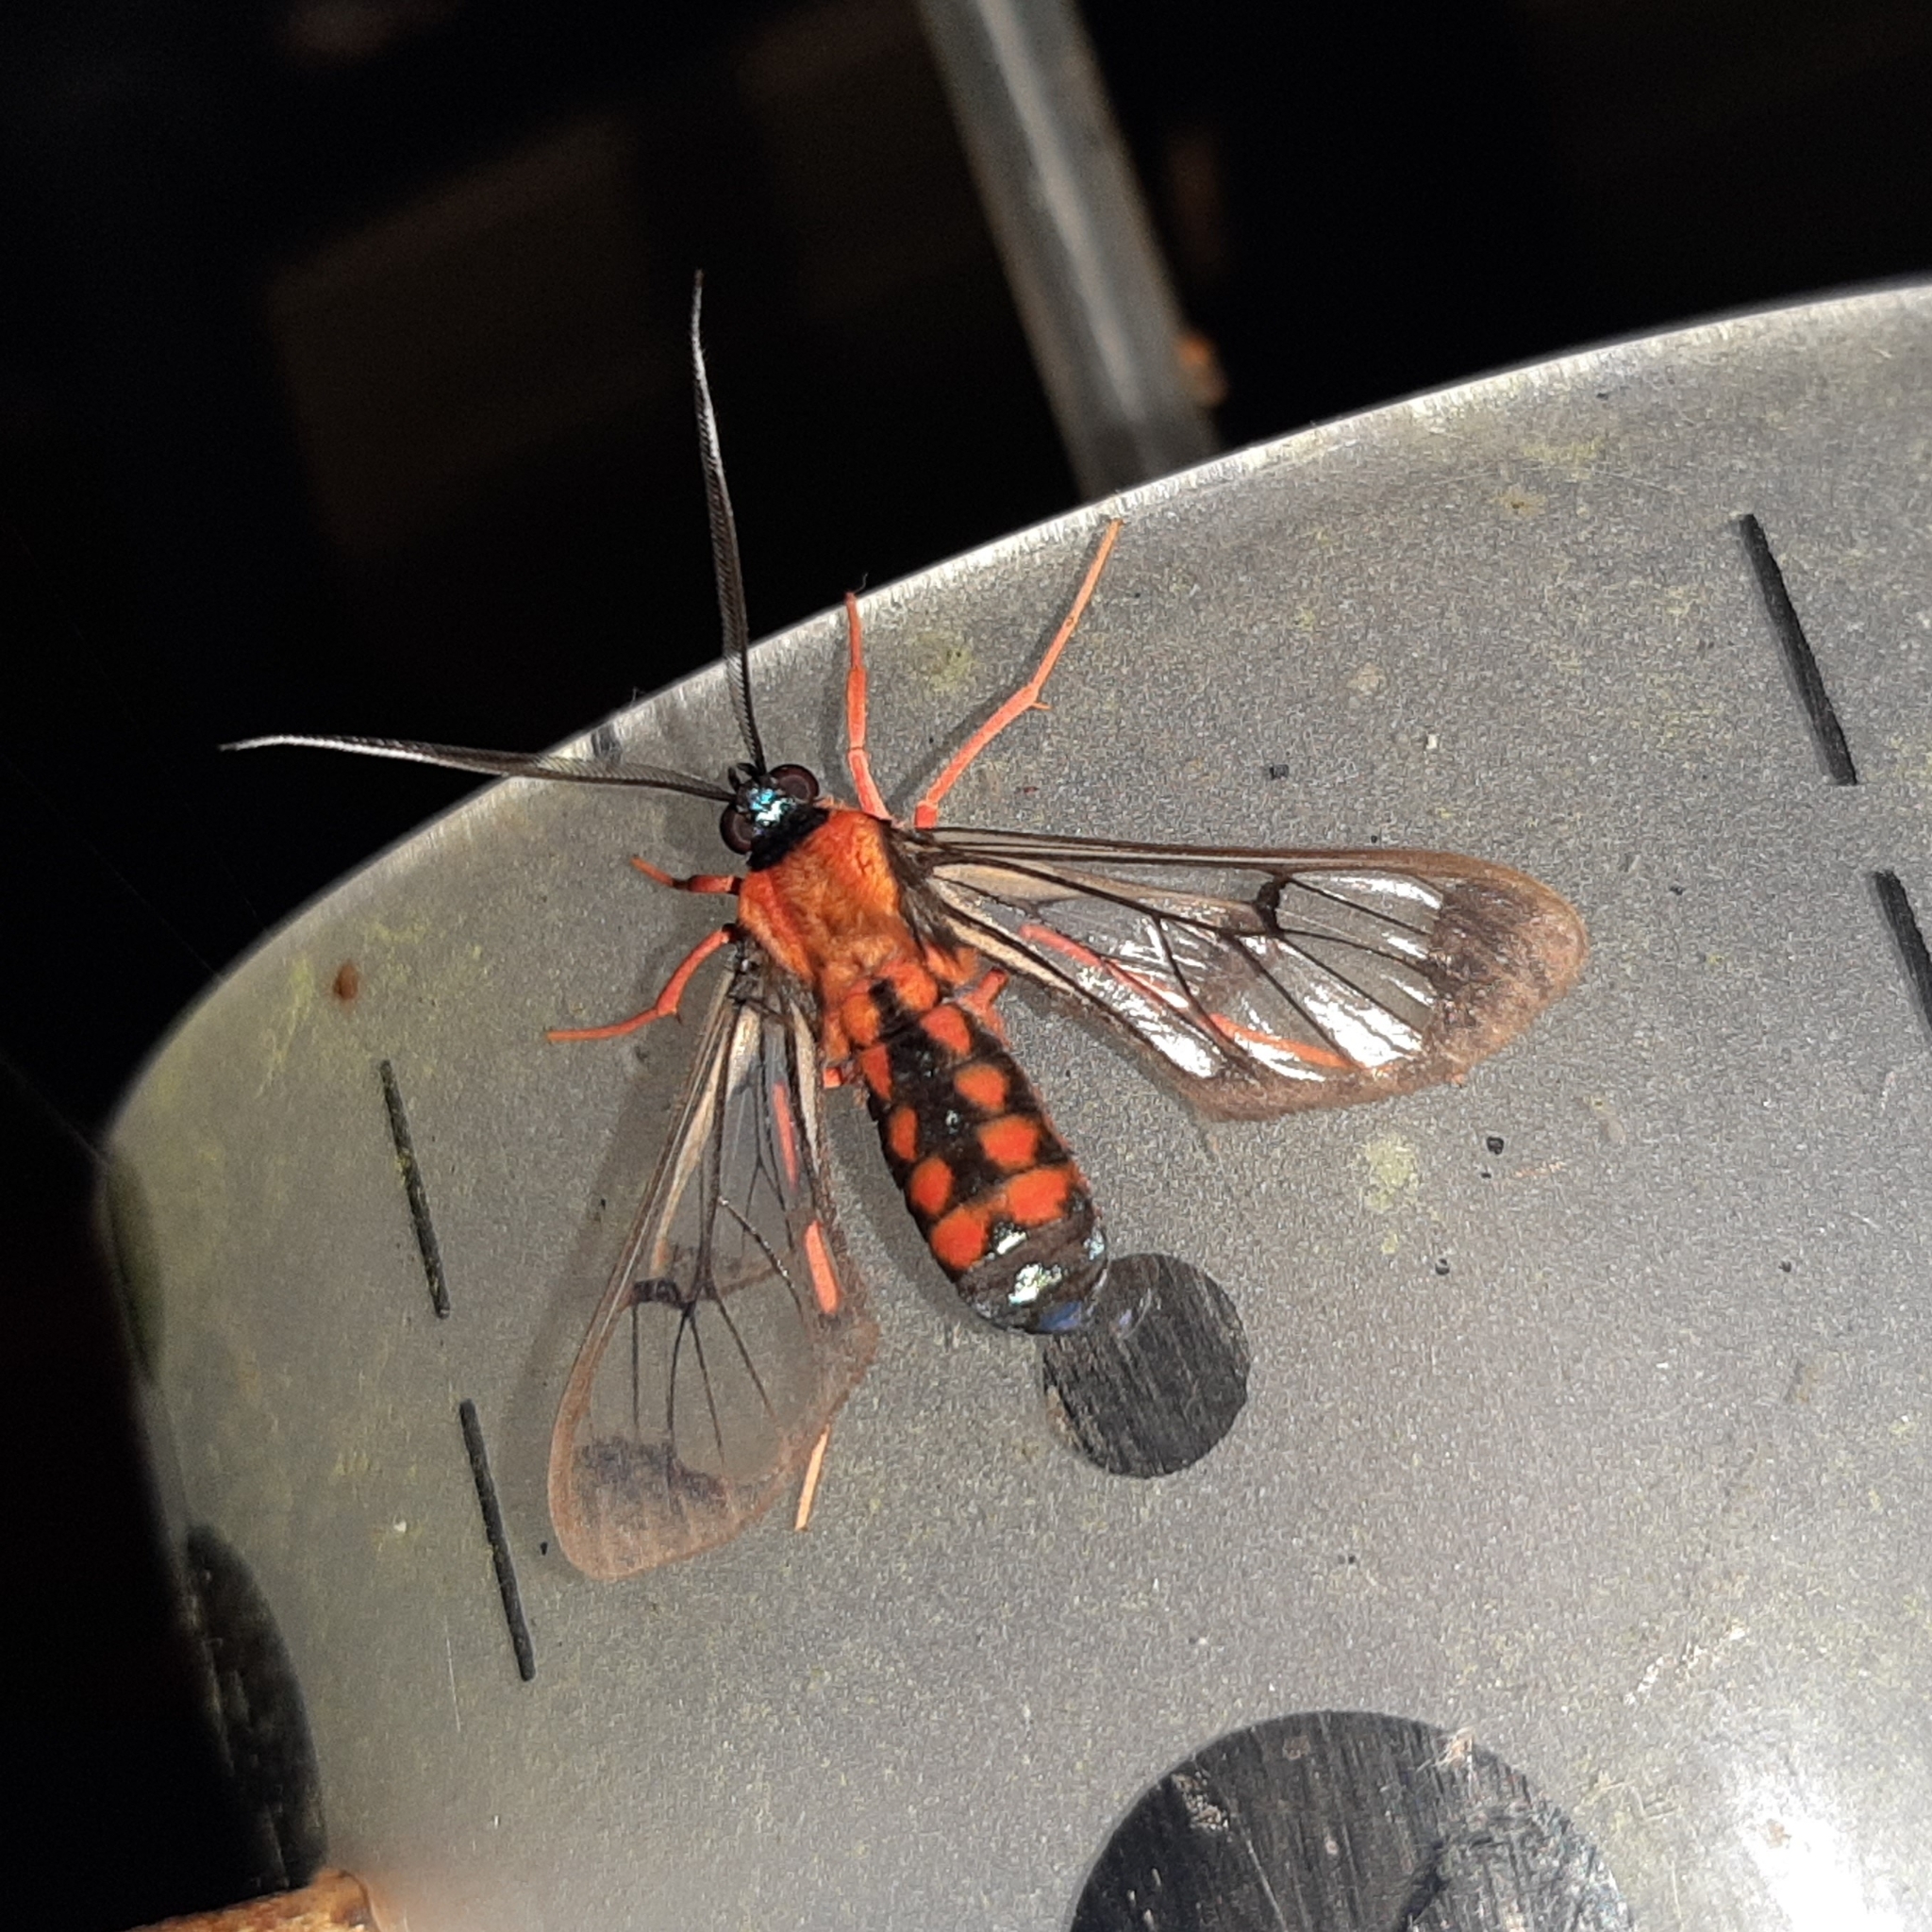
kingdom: Animalia
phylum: Arthropoda
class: Insecta
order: Lepidoptera
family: Erebidae
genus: Cosmosoma
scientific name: Cosmosoma sectinota
